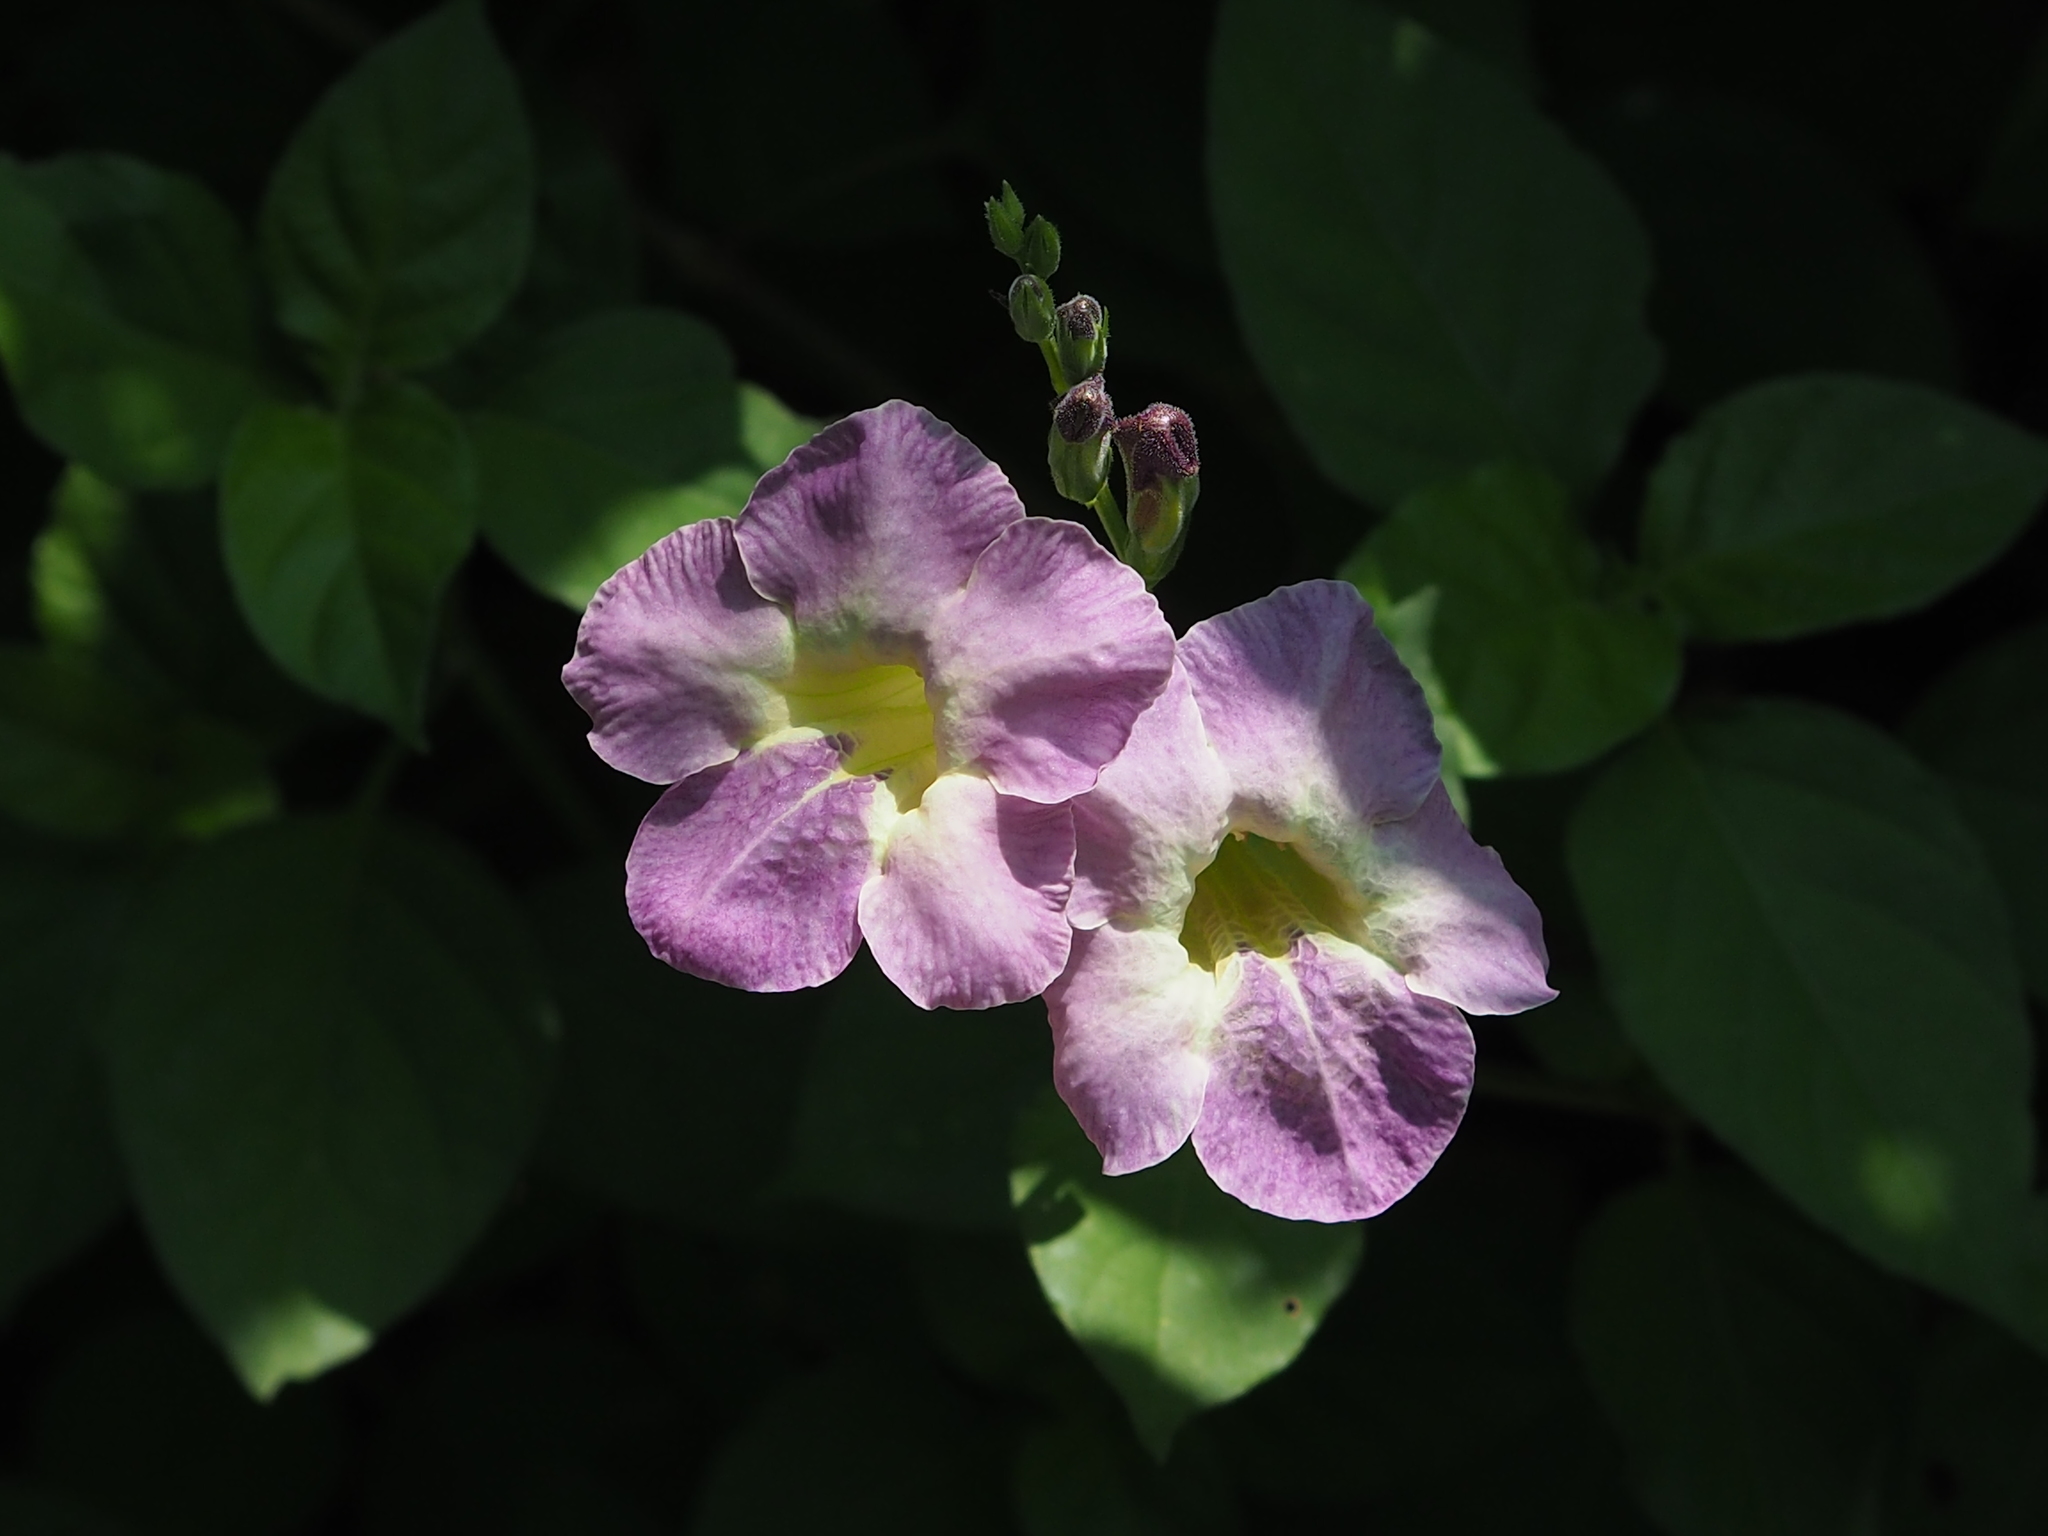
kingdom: Plantae
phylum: Tracheophyta
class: Magnoliopsida
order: Lamiales
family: Acanthaceae
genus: Asystasia
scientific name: Asystasia gangetica
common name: Chinese violet
